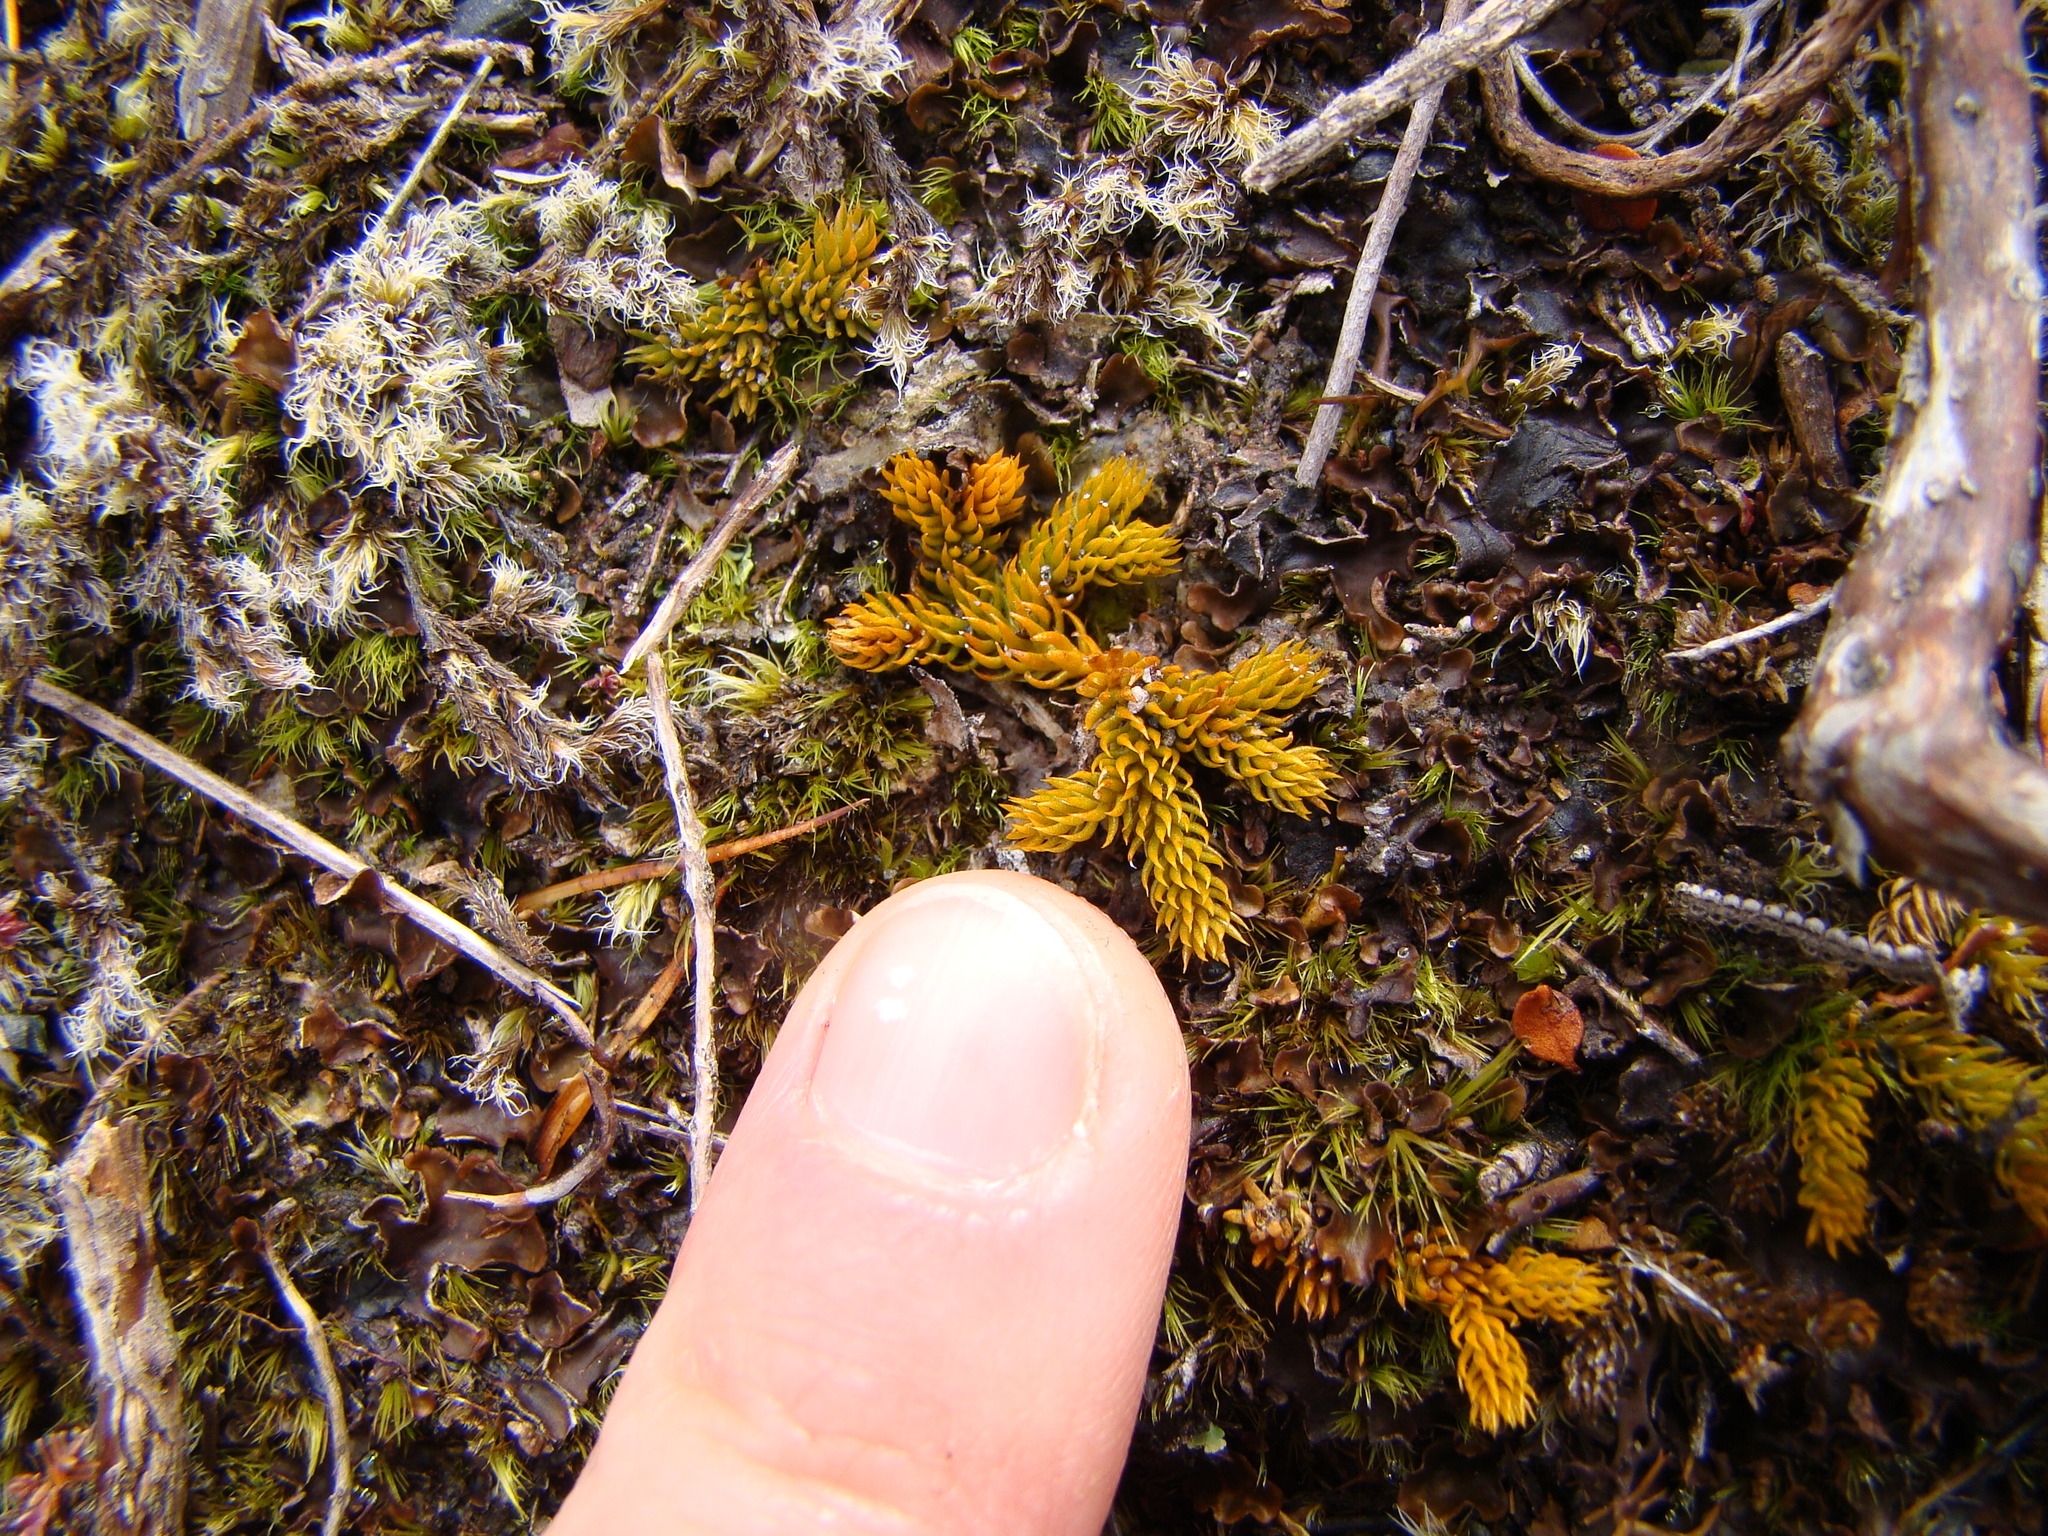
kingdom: Plantae
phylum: Tracheophyta
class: Lycopodiopsida
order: Lycopodiales
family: Lycopodiaceae
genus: Austrolycopodium
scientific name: Austrolycopodium fastigiatum
